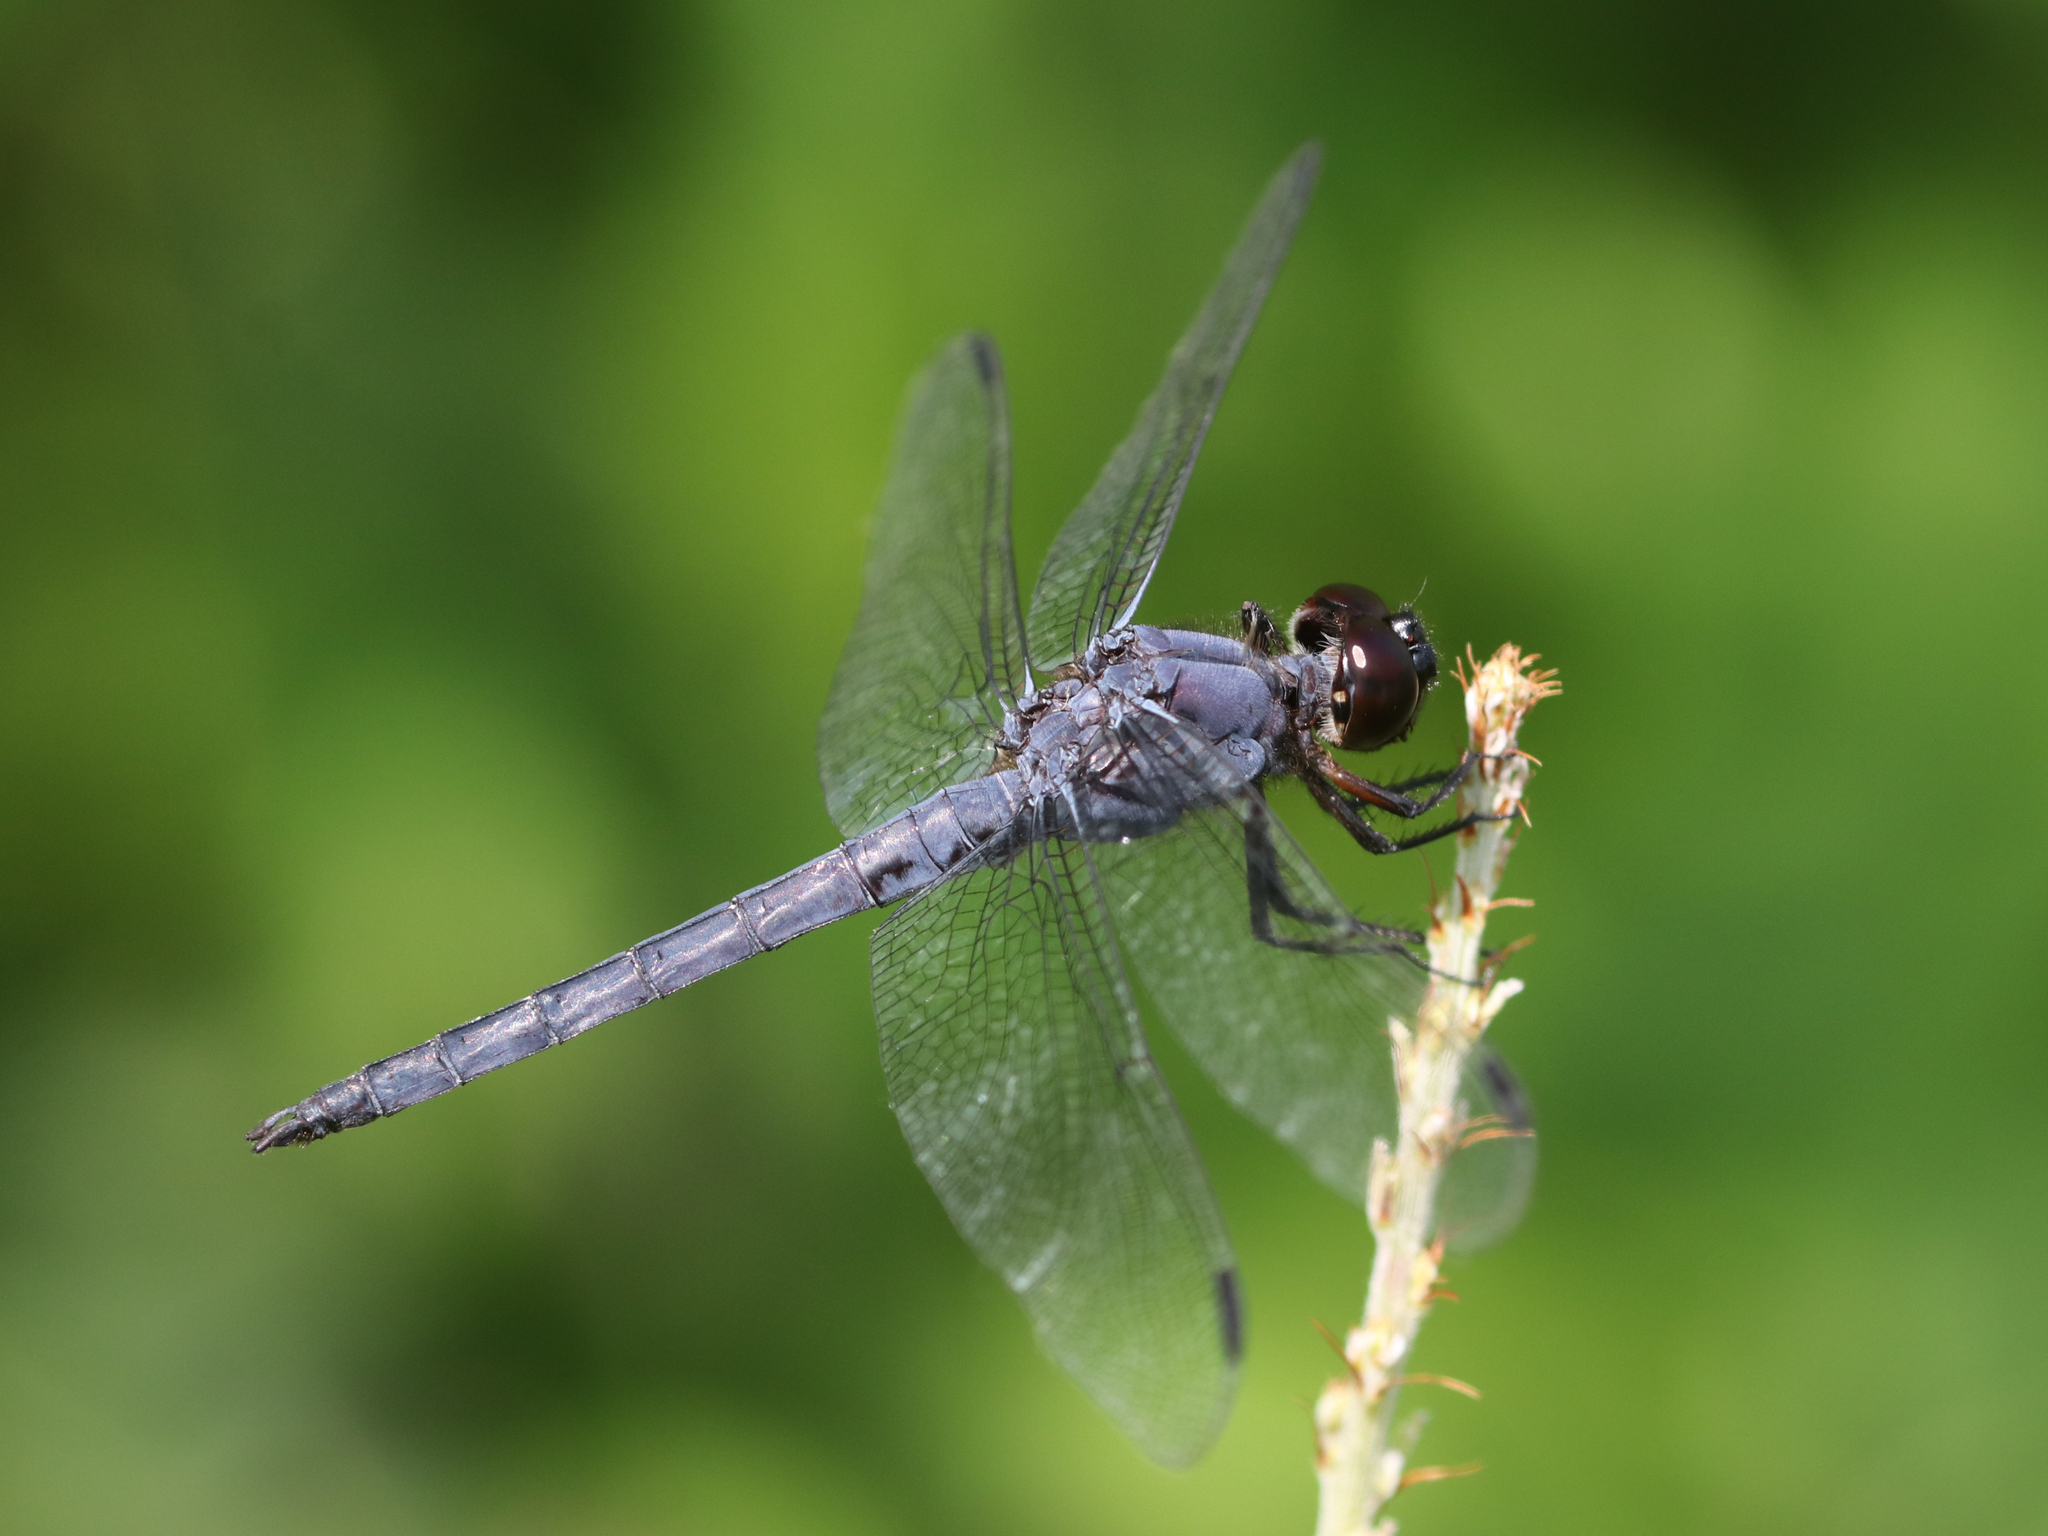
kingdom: Animalia
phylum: Arthropoda
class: Insecta
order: Odonata
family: Libellulidae
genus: Libellula
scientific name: Libellula incesta
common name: Slaty skimmer
